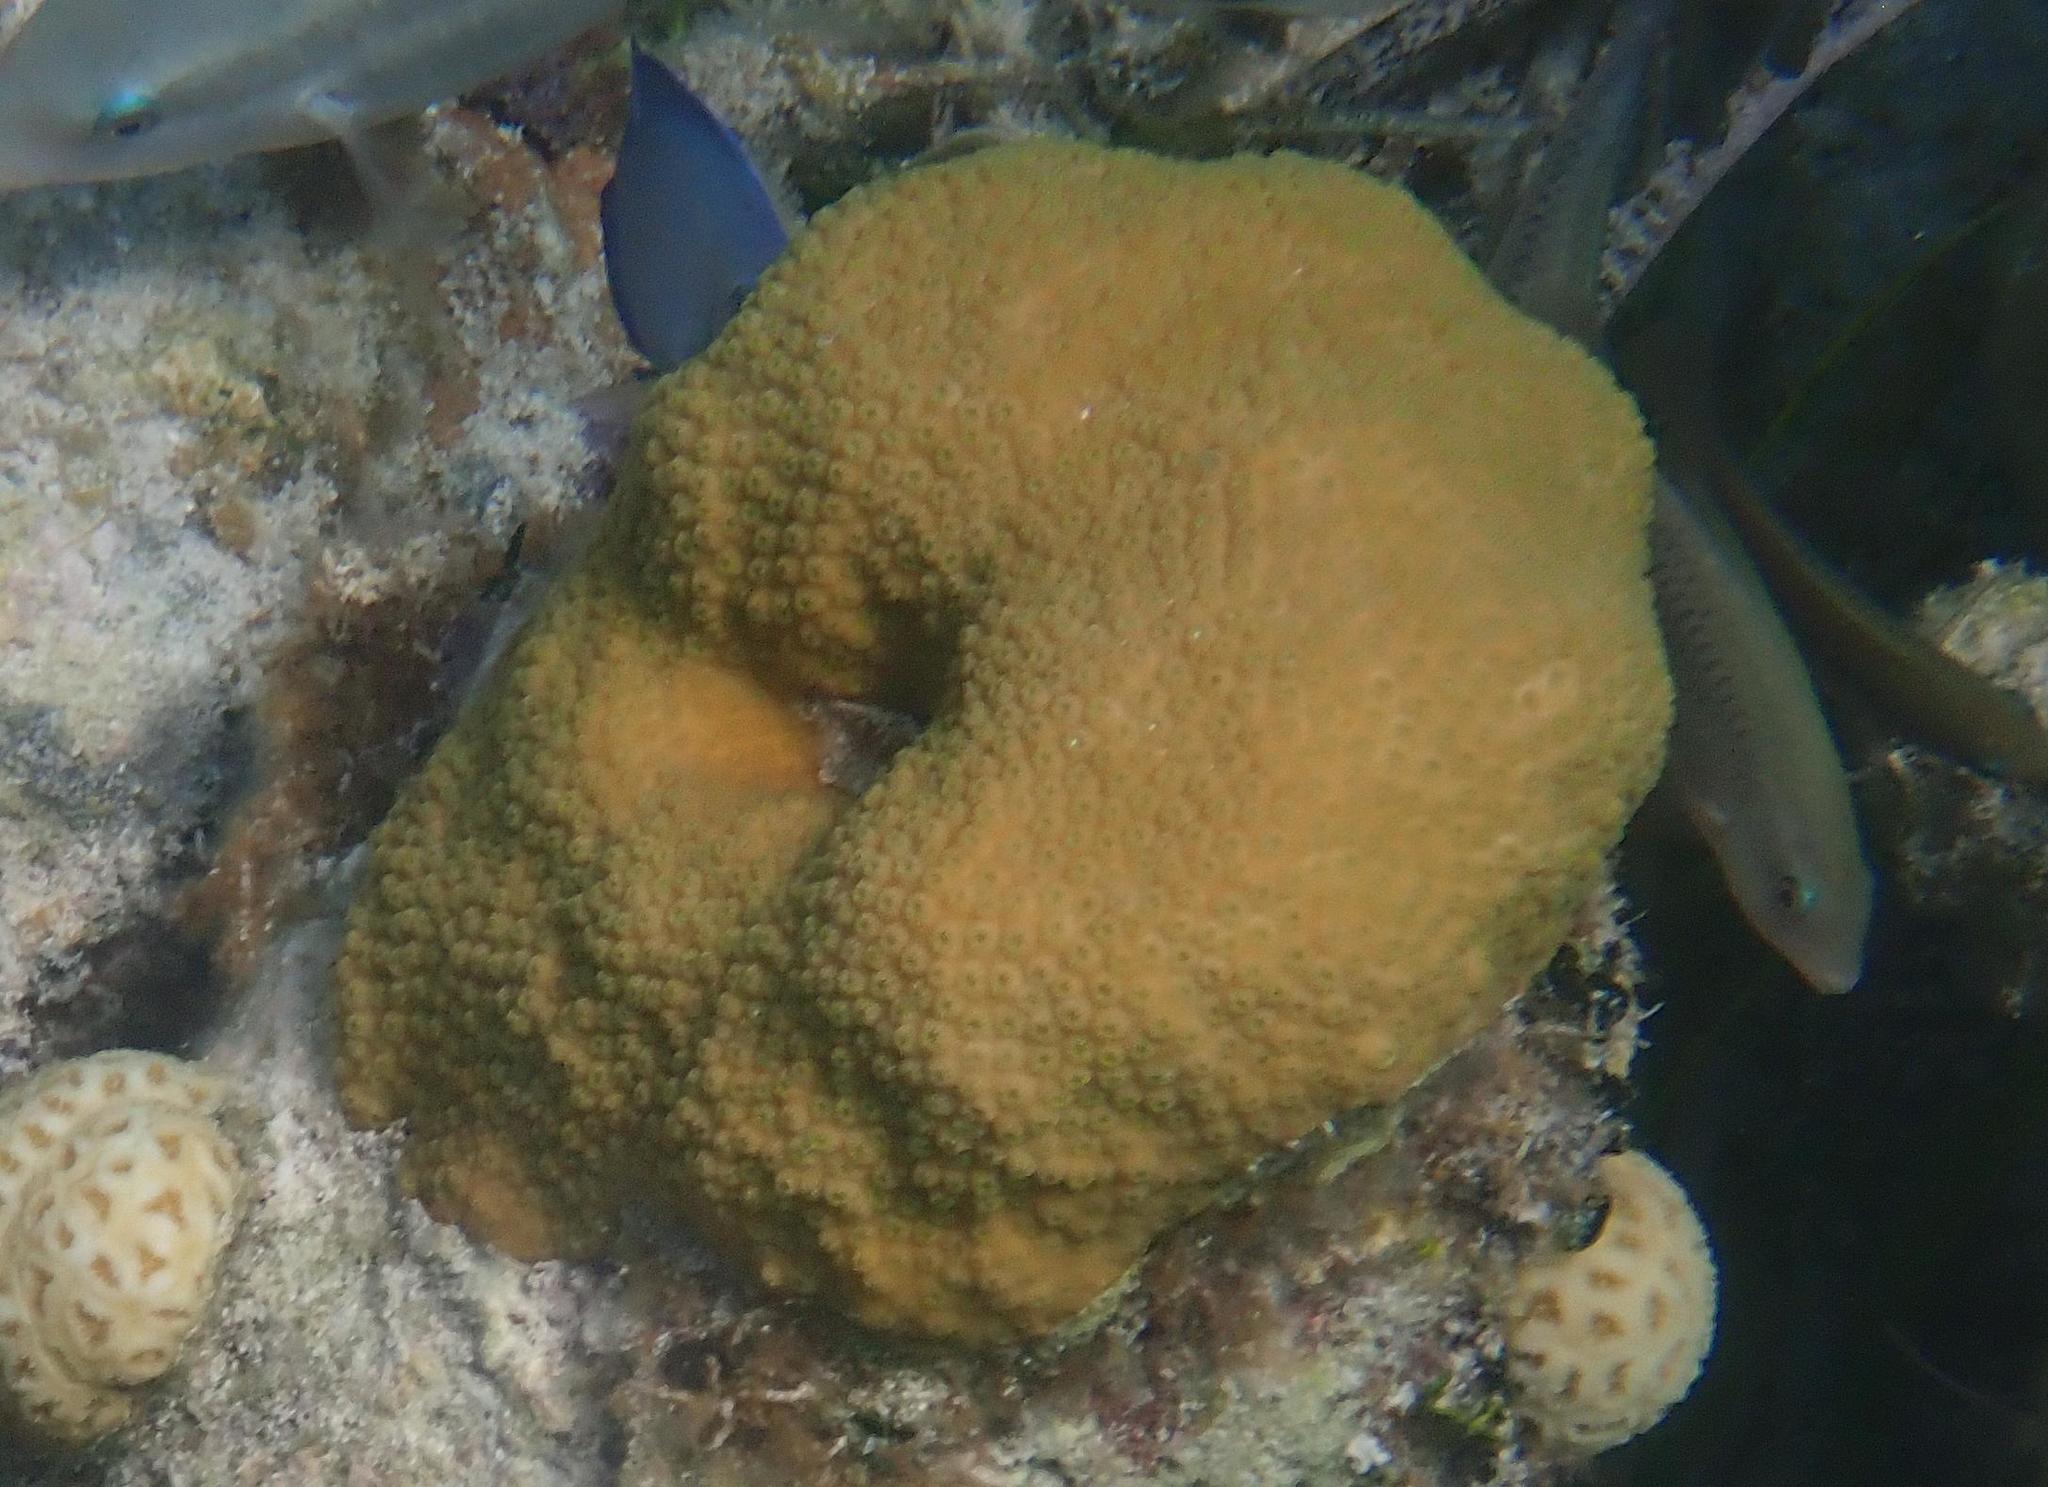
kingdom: Animalia
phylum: Cnidaria
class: Anthozoa
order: Scleractinia
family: Merulinidae
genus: Orbicella
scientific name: Orbicella annularis
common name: Boulder star coral
